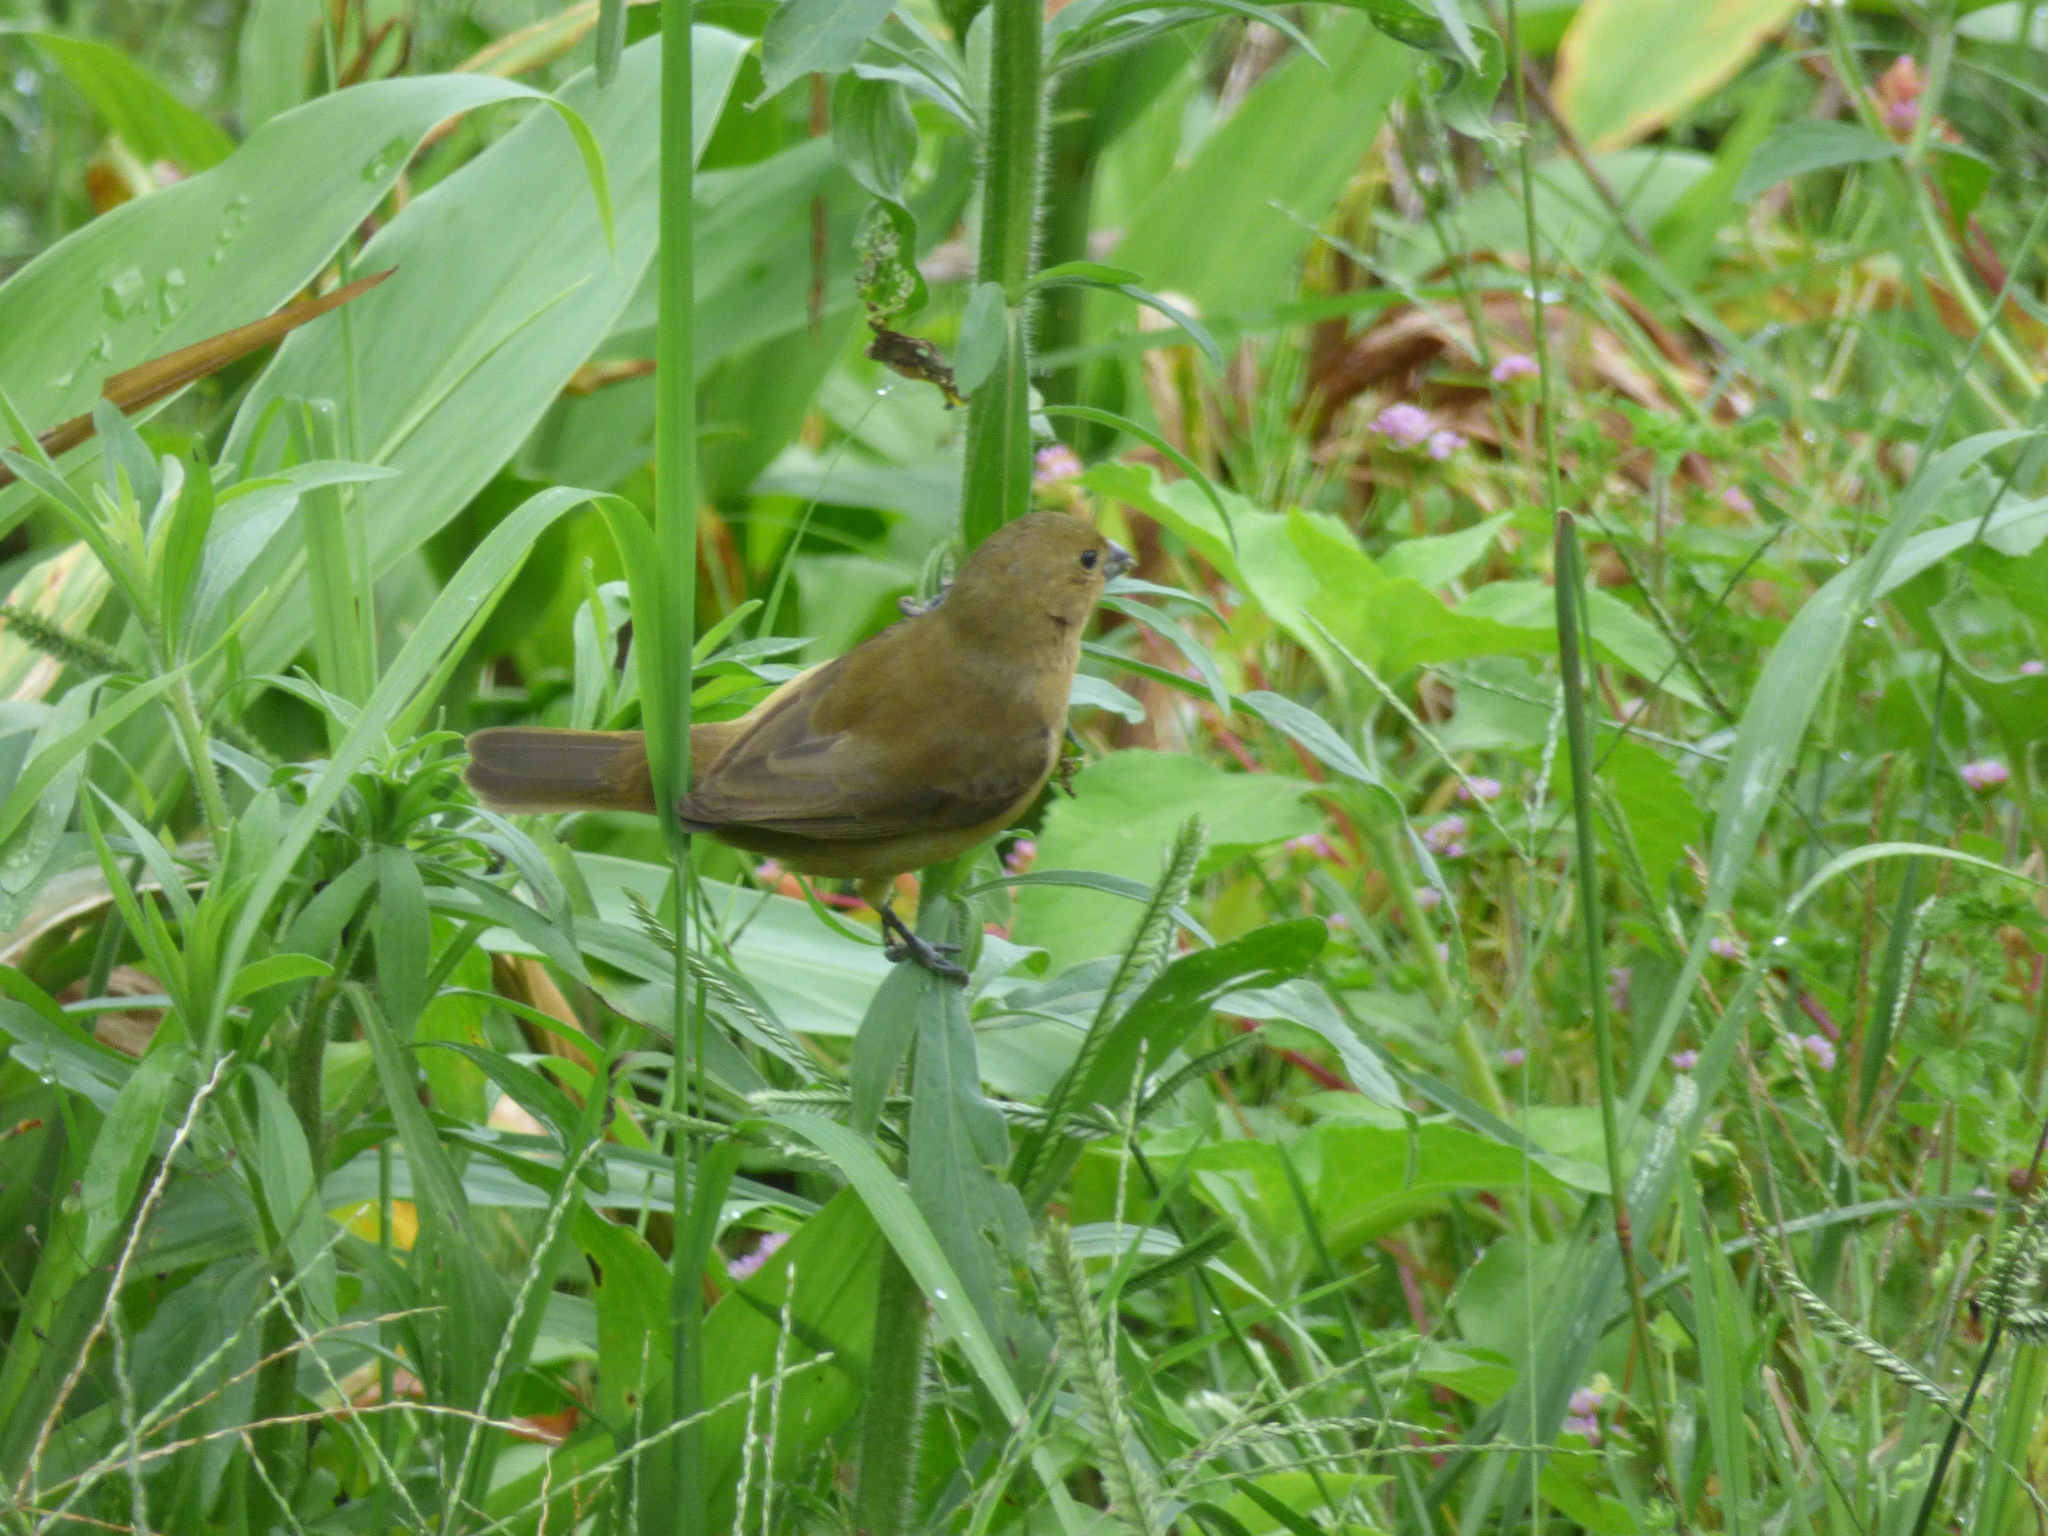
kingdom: Animalia
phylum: Chordata
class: Aves
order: Passeriformes
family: Thraupidae
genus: Sporophila
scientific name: Sporophila nigricollis
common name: Yellow-bellied seedeater
